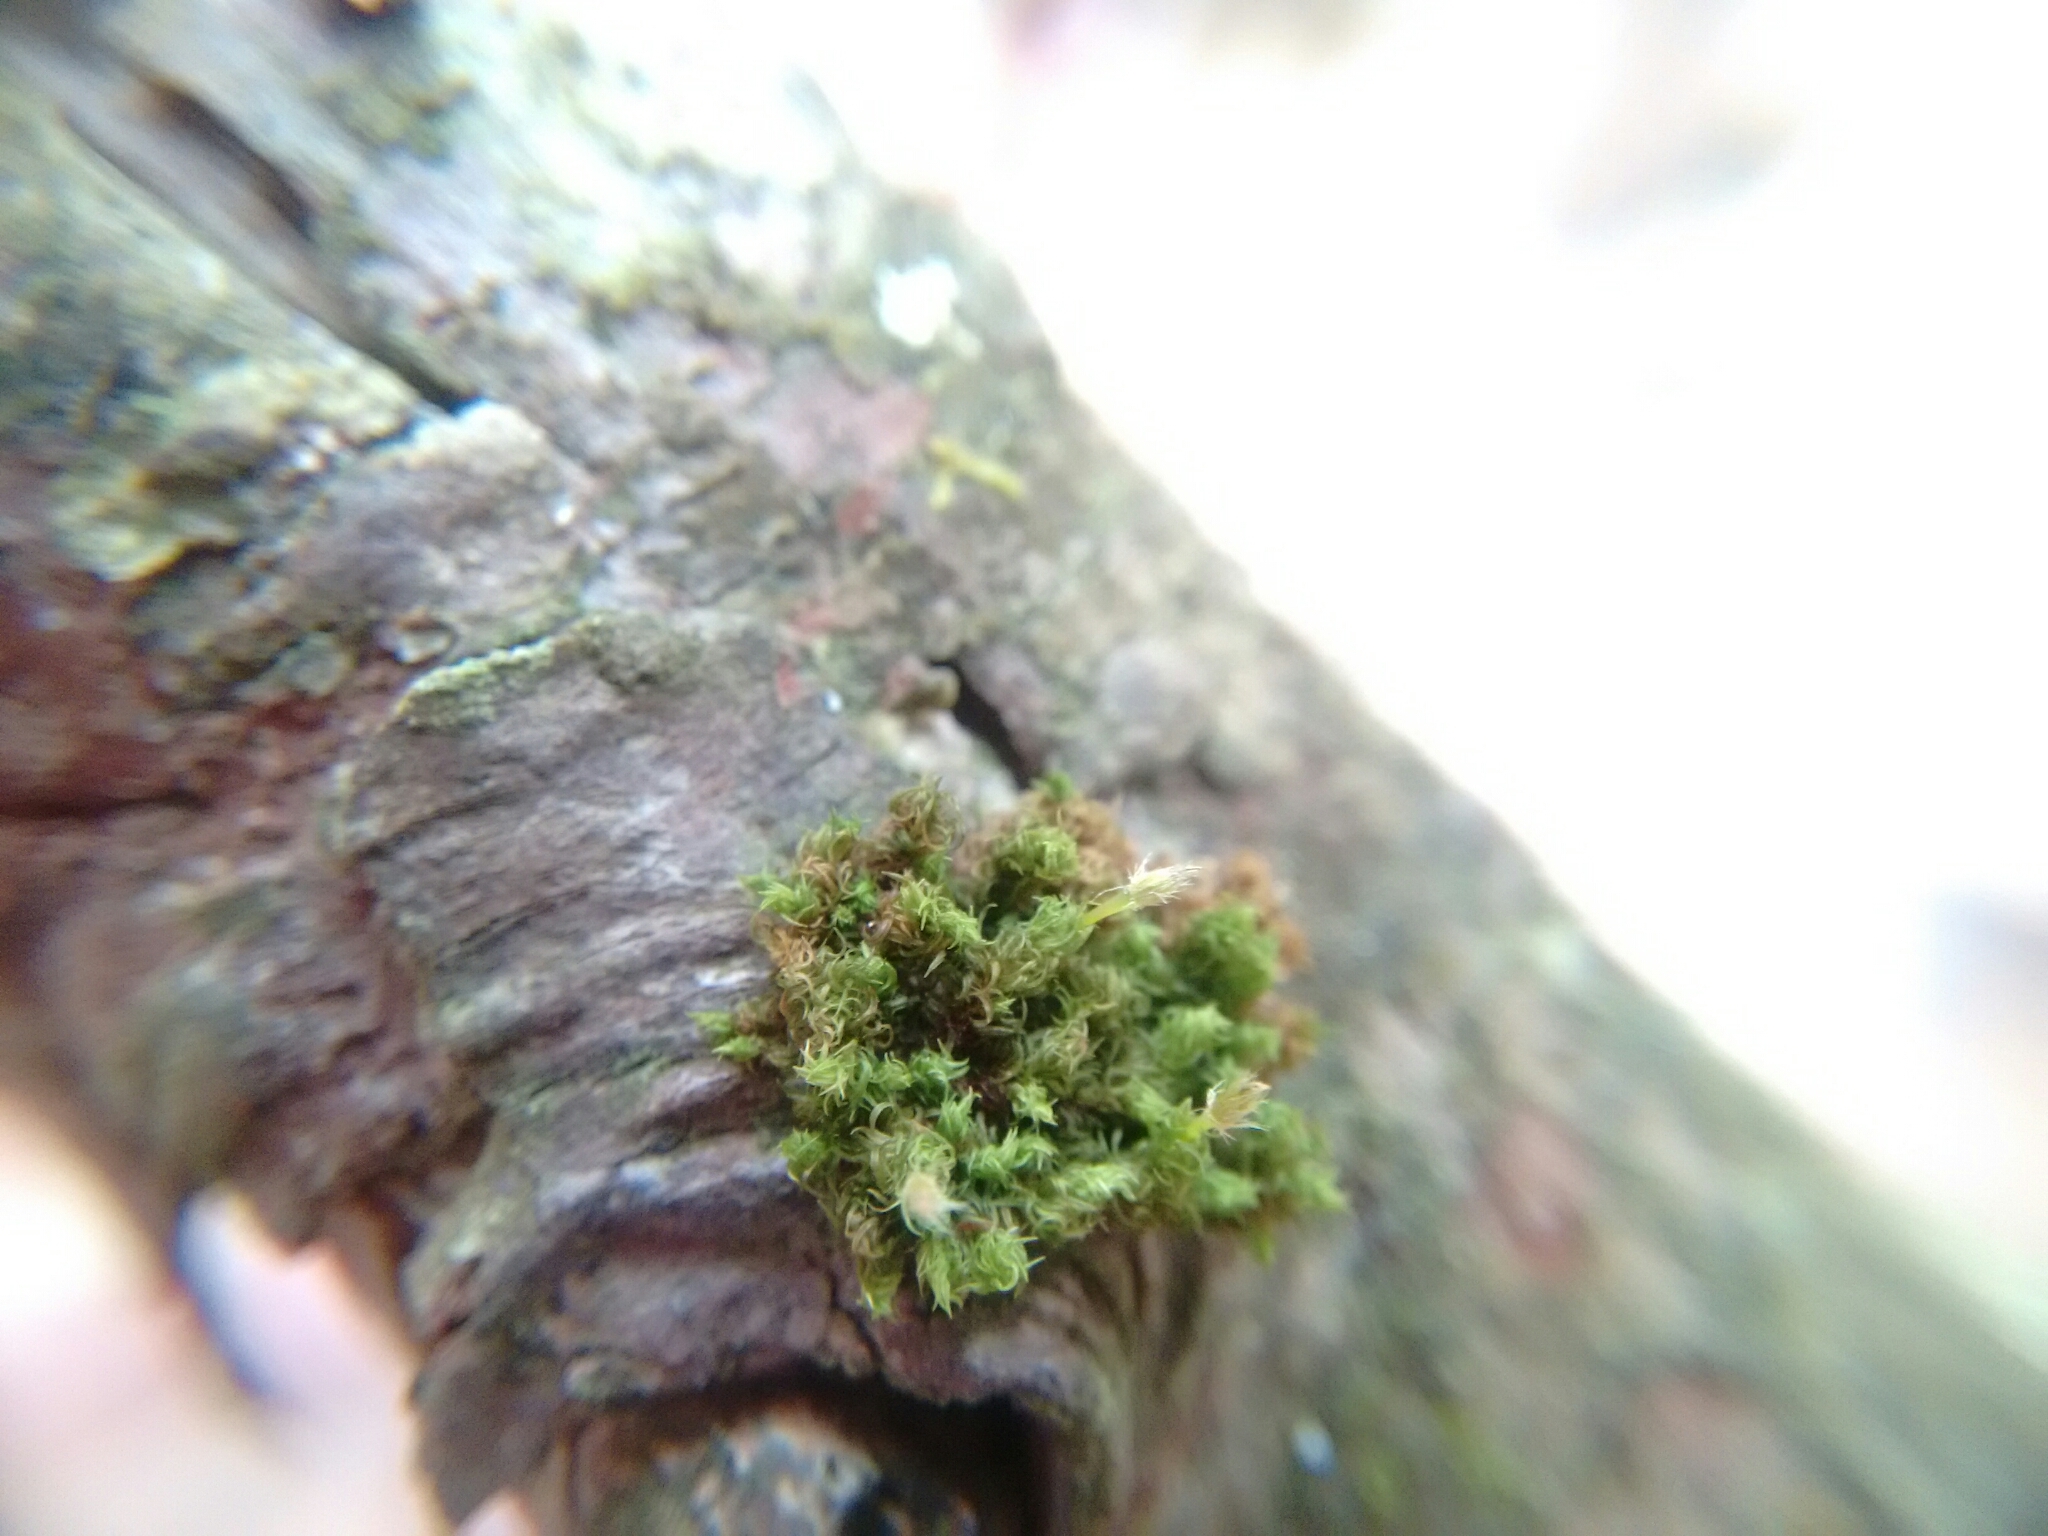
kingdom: Plantae
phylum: Bryophyta
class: Bryopsida
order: Orthotrichales
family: Orthotrichaceae
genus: Ulota
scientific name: Ulota crispa
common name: Crisped pincushion moss
